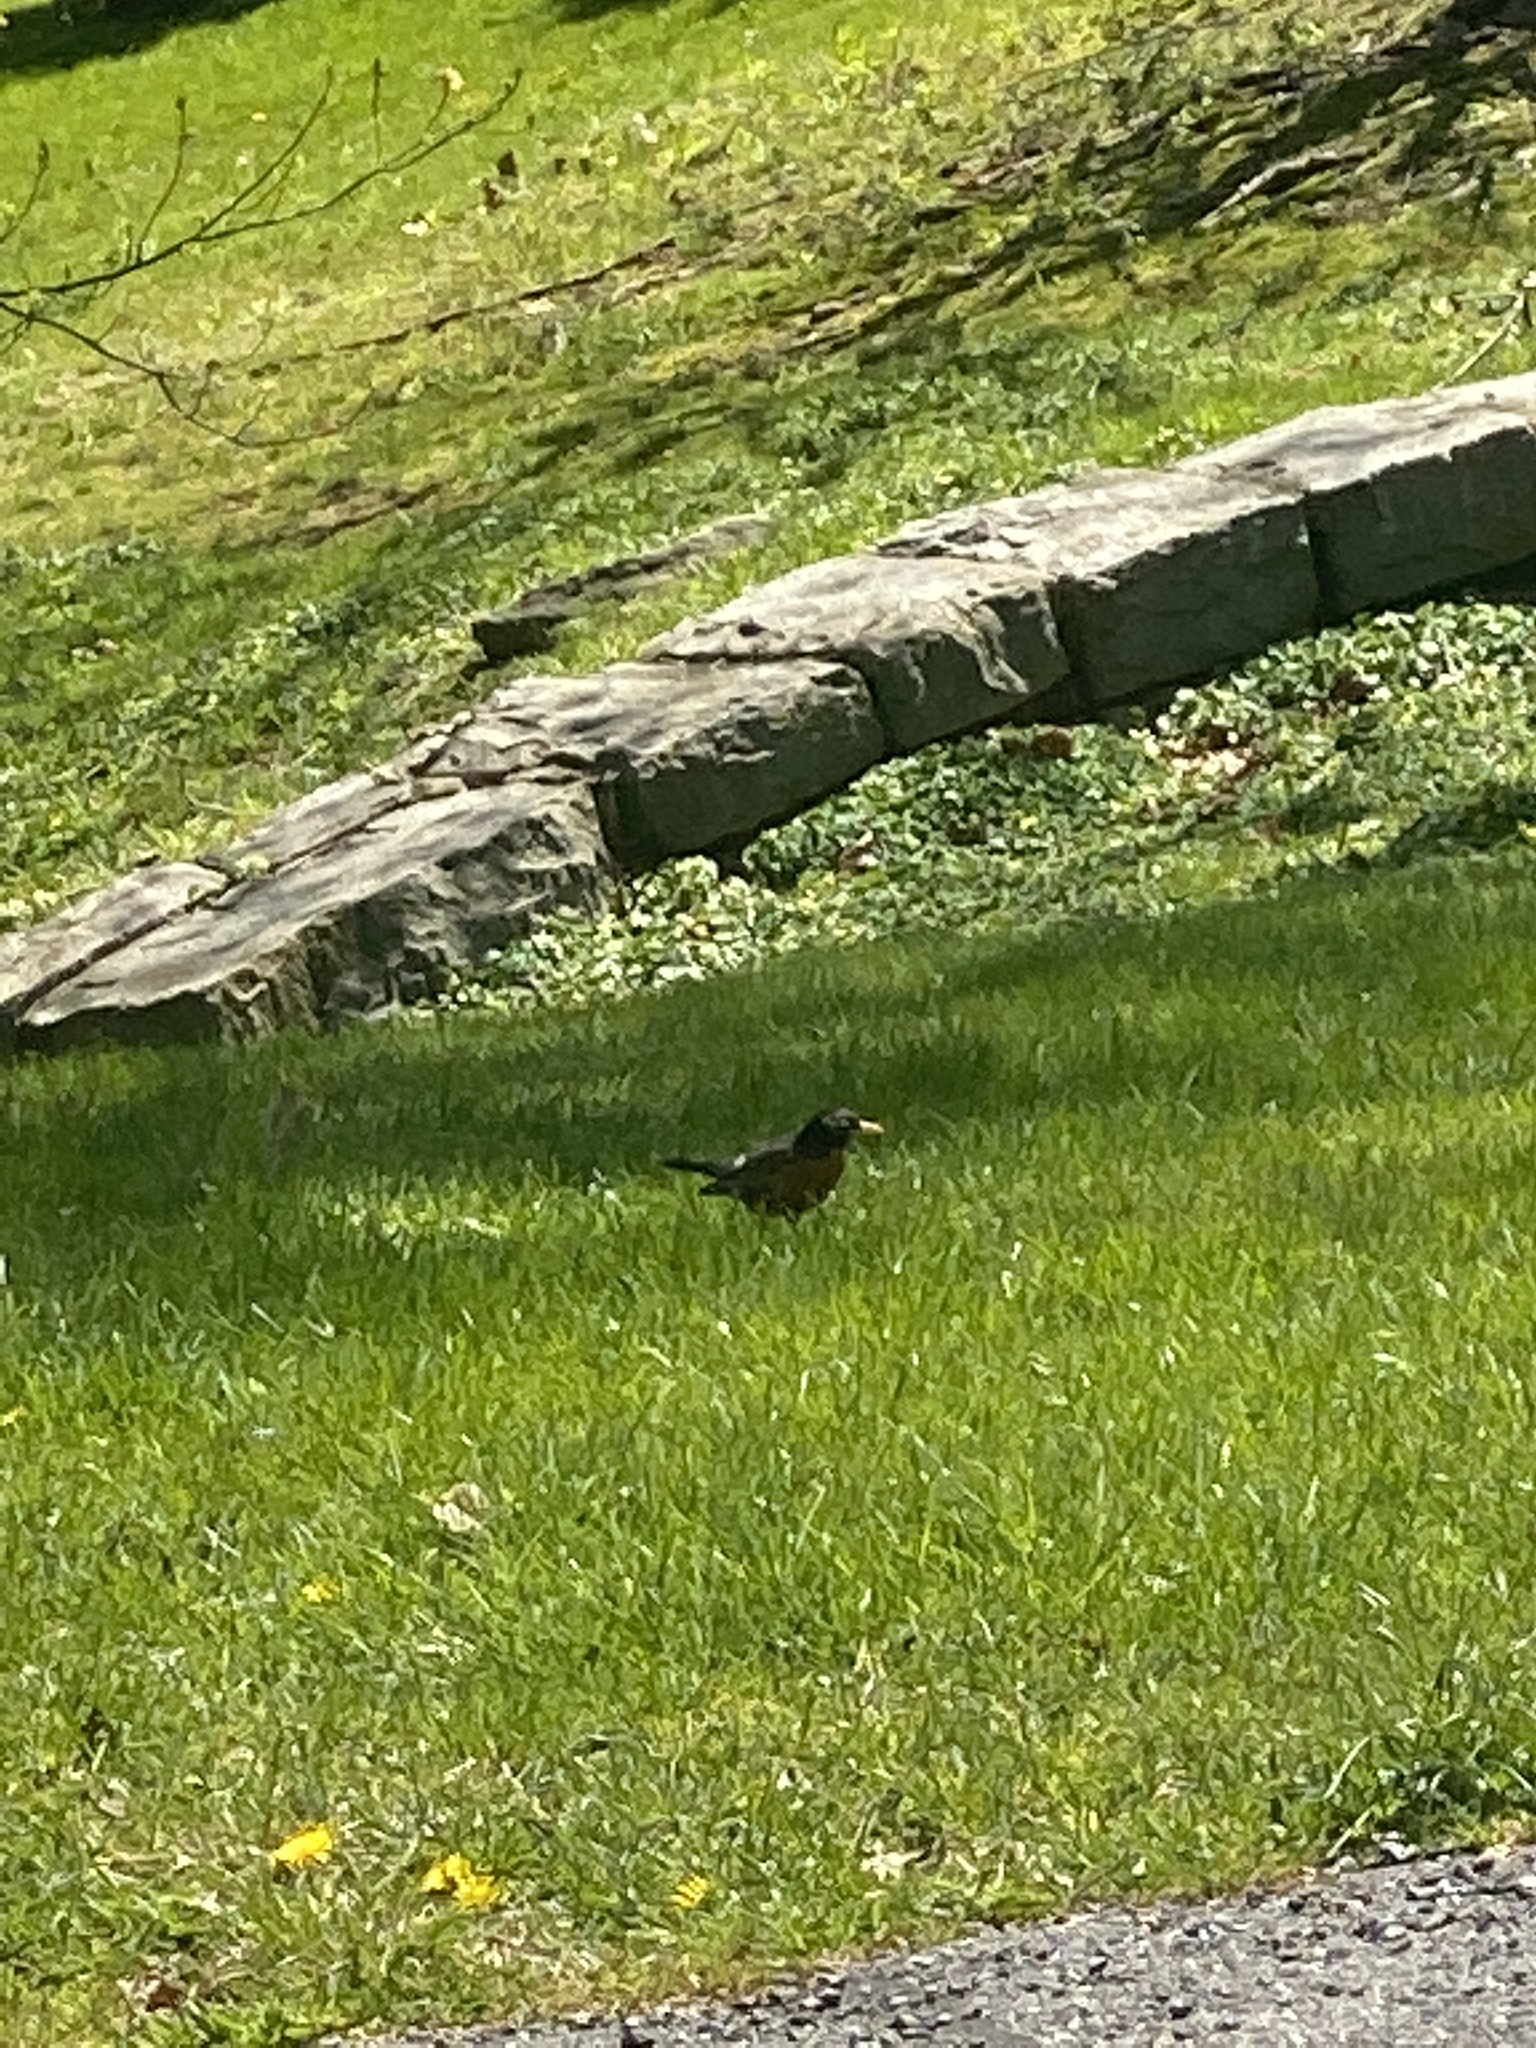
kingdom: Animalia
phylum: Chordata
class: Aves
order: Passeriformes
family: Turdidae
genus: Turdus
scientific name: Turdus migratorius
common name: American robin
